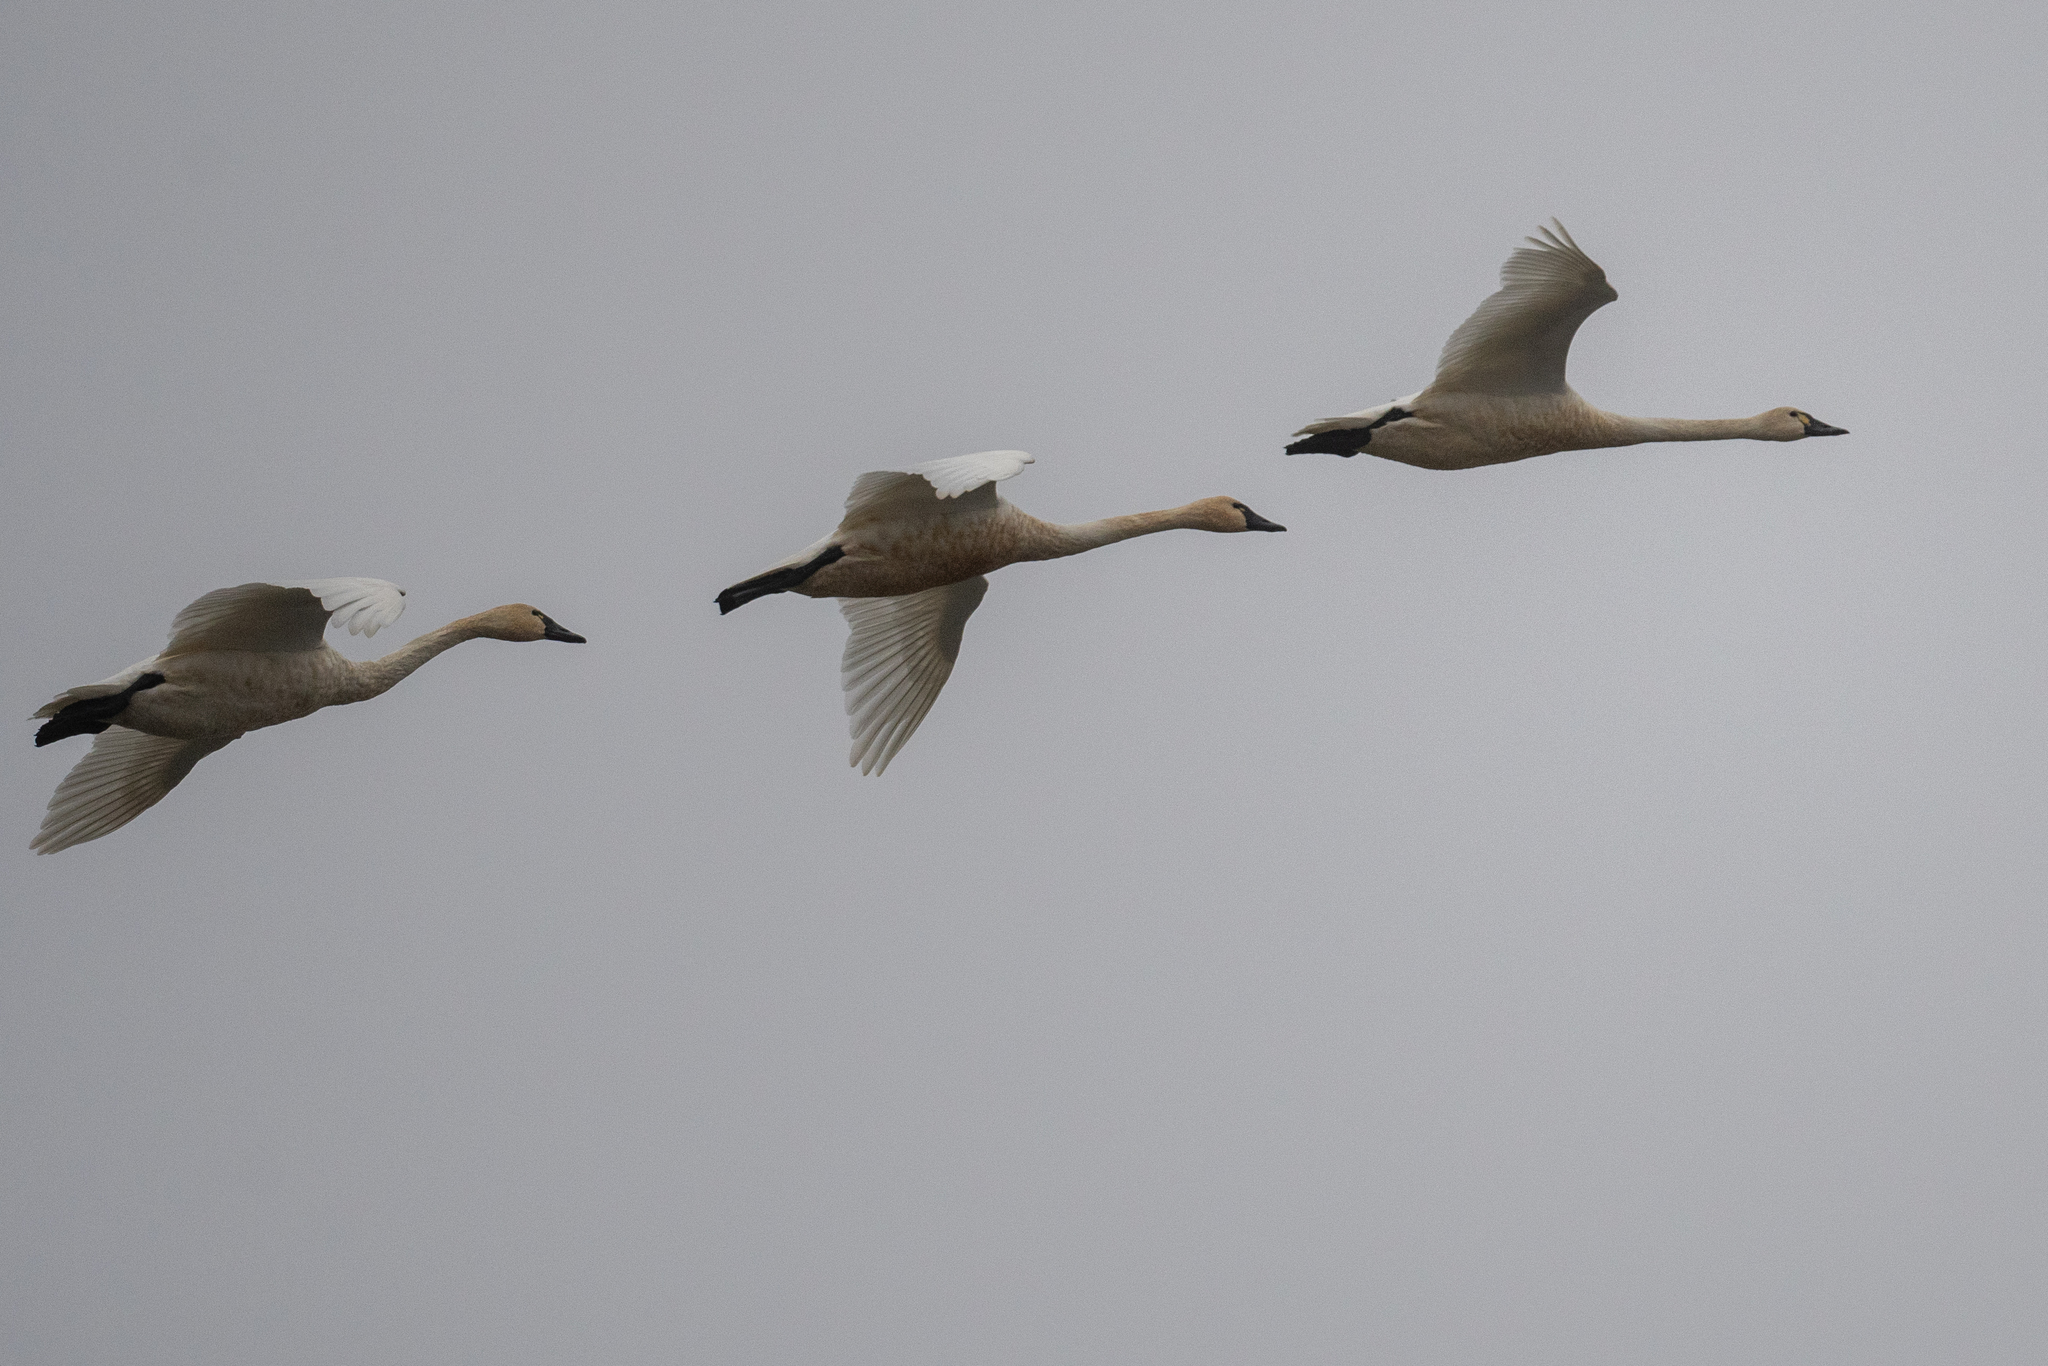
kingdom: Animalia
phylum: Chordata
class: Aves
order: Anseriformes
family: Anatidae
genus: Cygnus
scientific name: Cygnus columbianus
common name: Tundra swan
